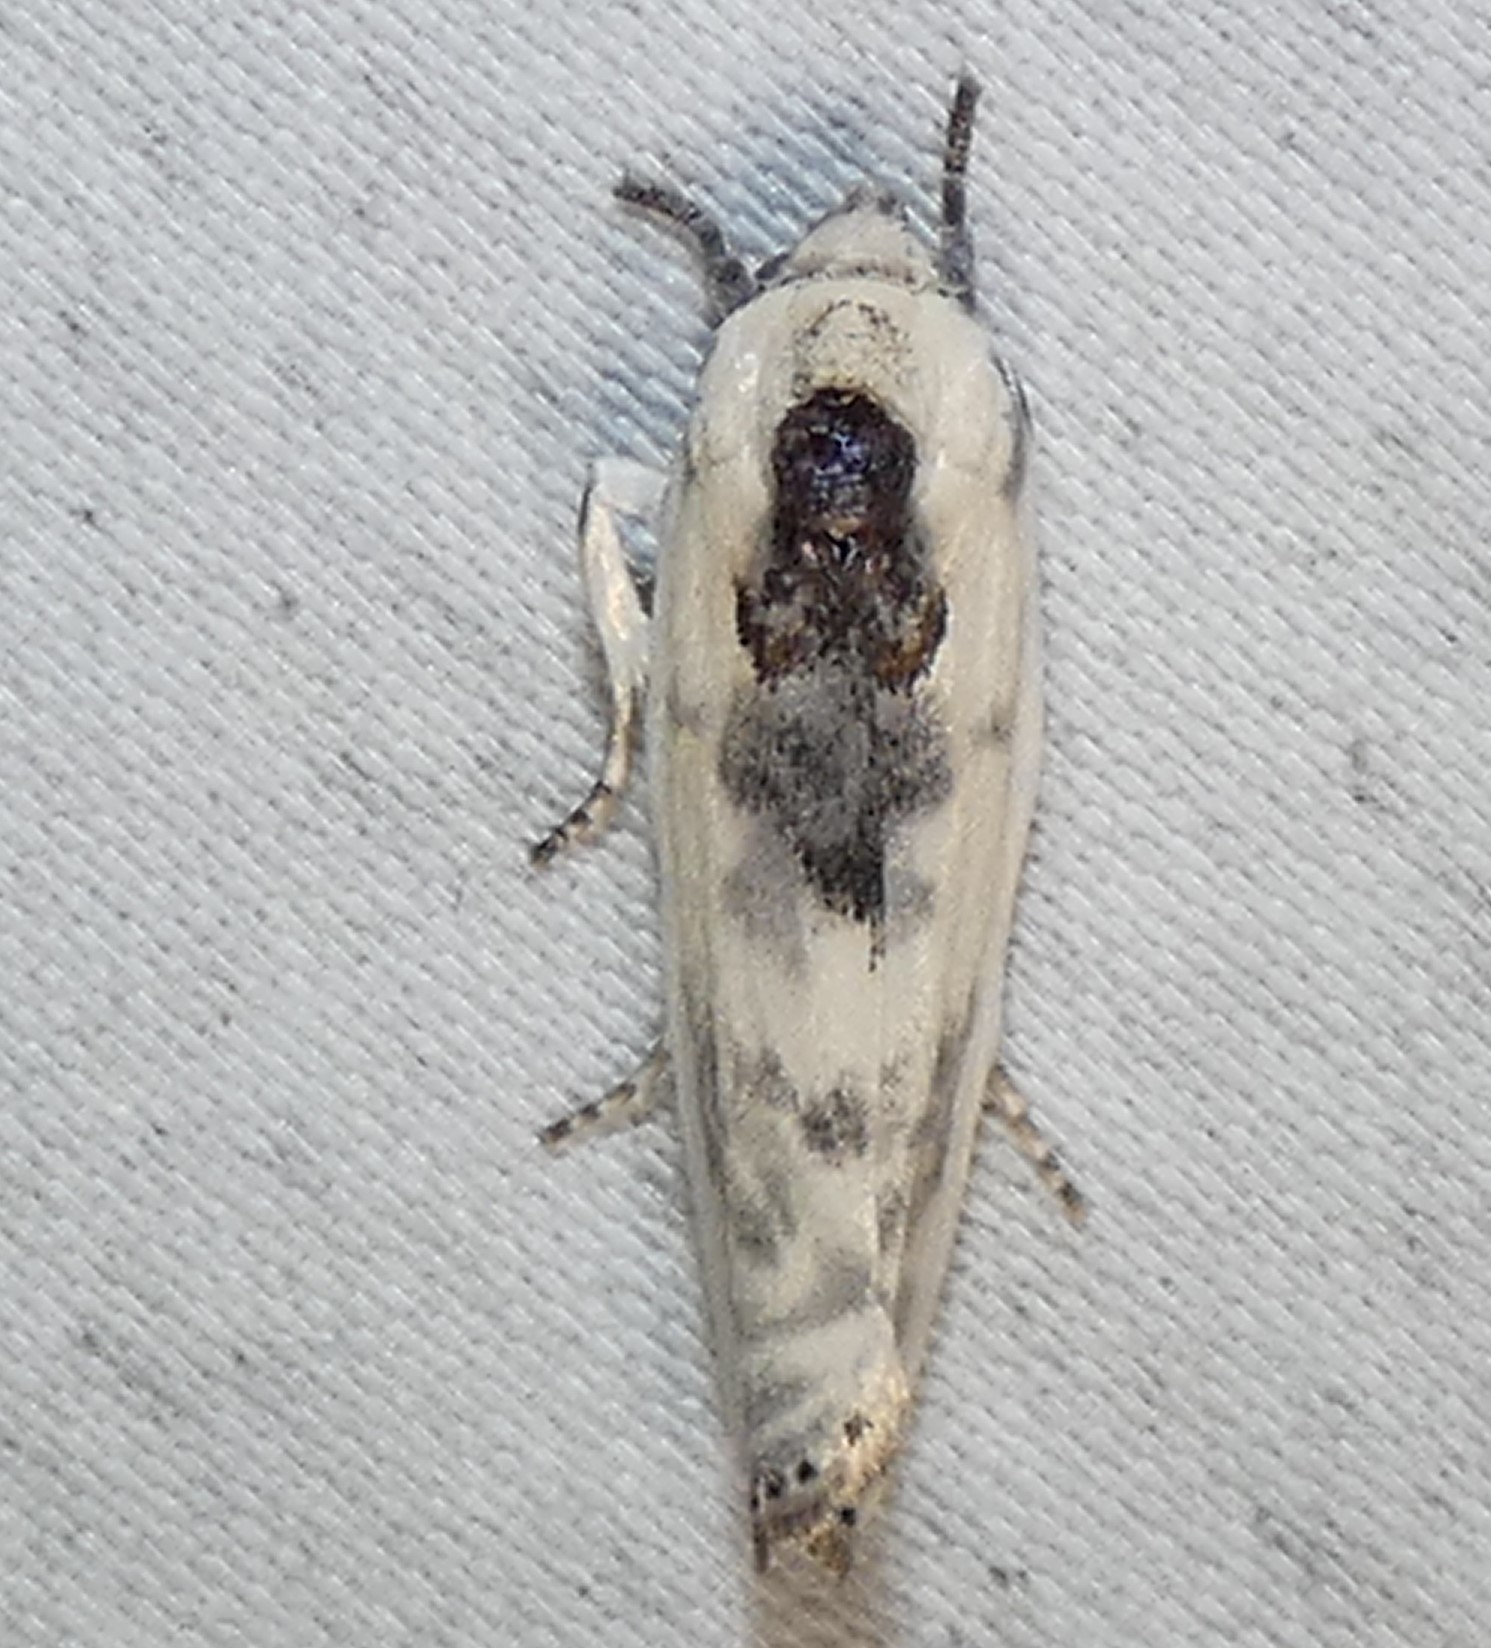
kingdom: Animalia
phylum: Arthropoda
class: Insecta
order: Lepidoptera
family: Depressariidae
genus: Antaeotricha
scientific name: Antaeotricha schlaegeri
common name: Schlaeger's fruitworm moth
